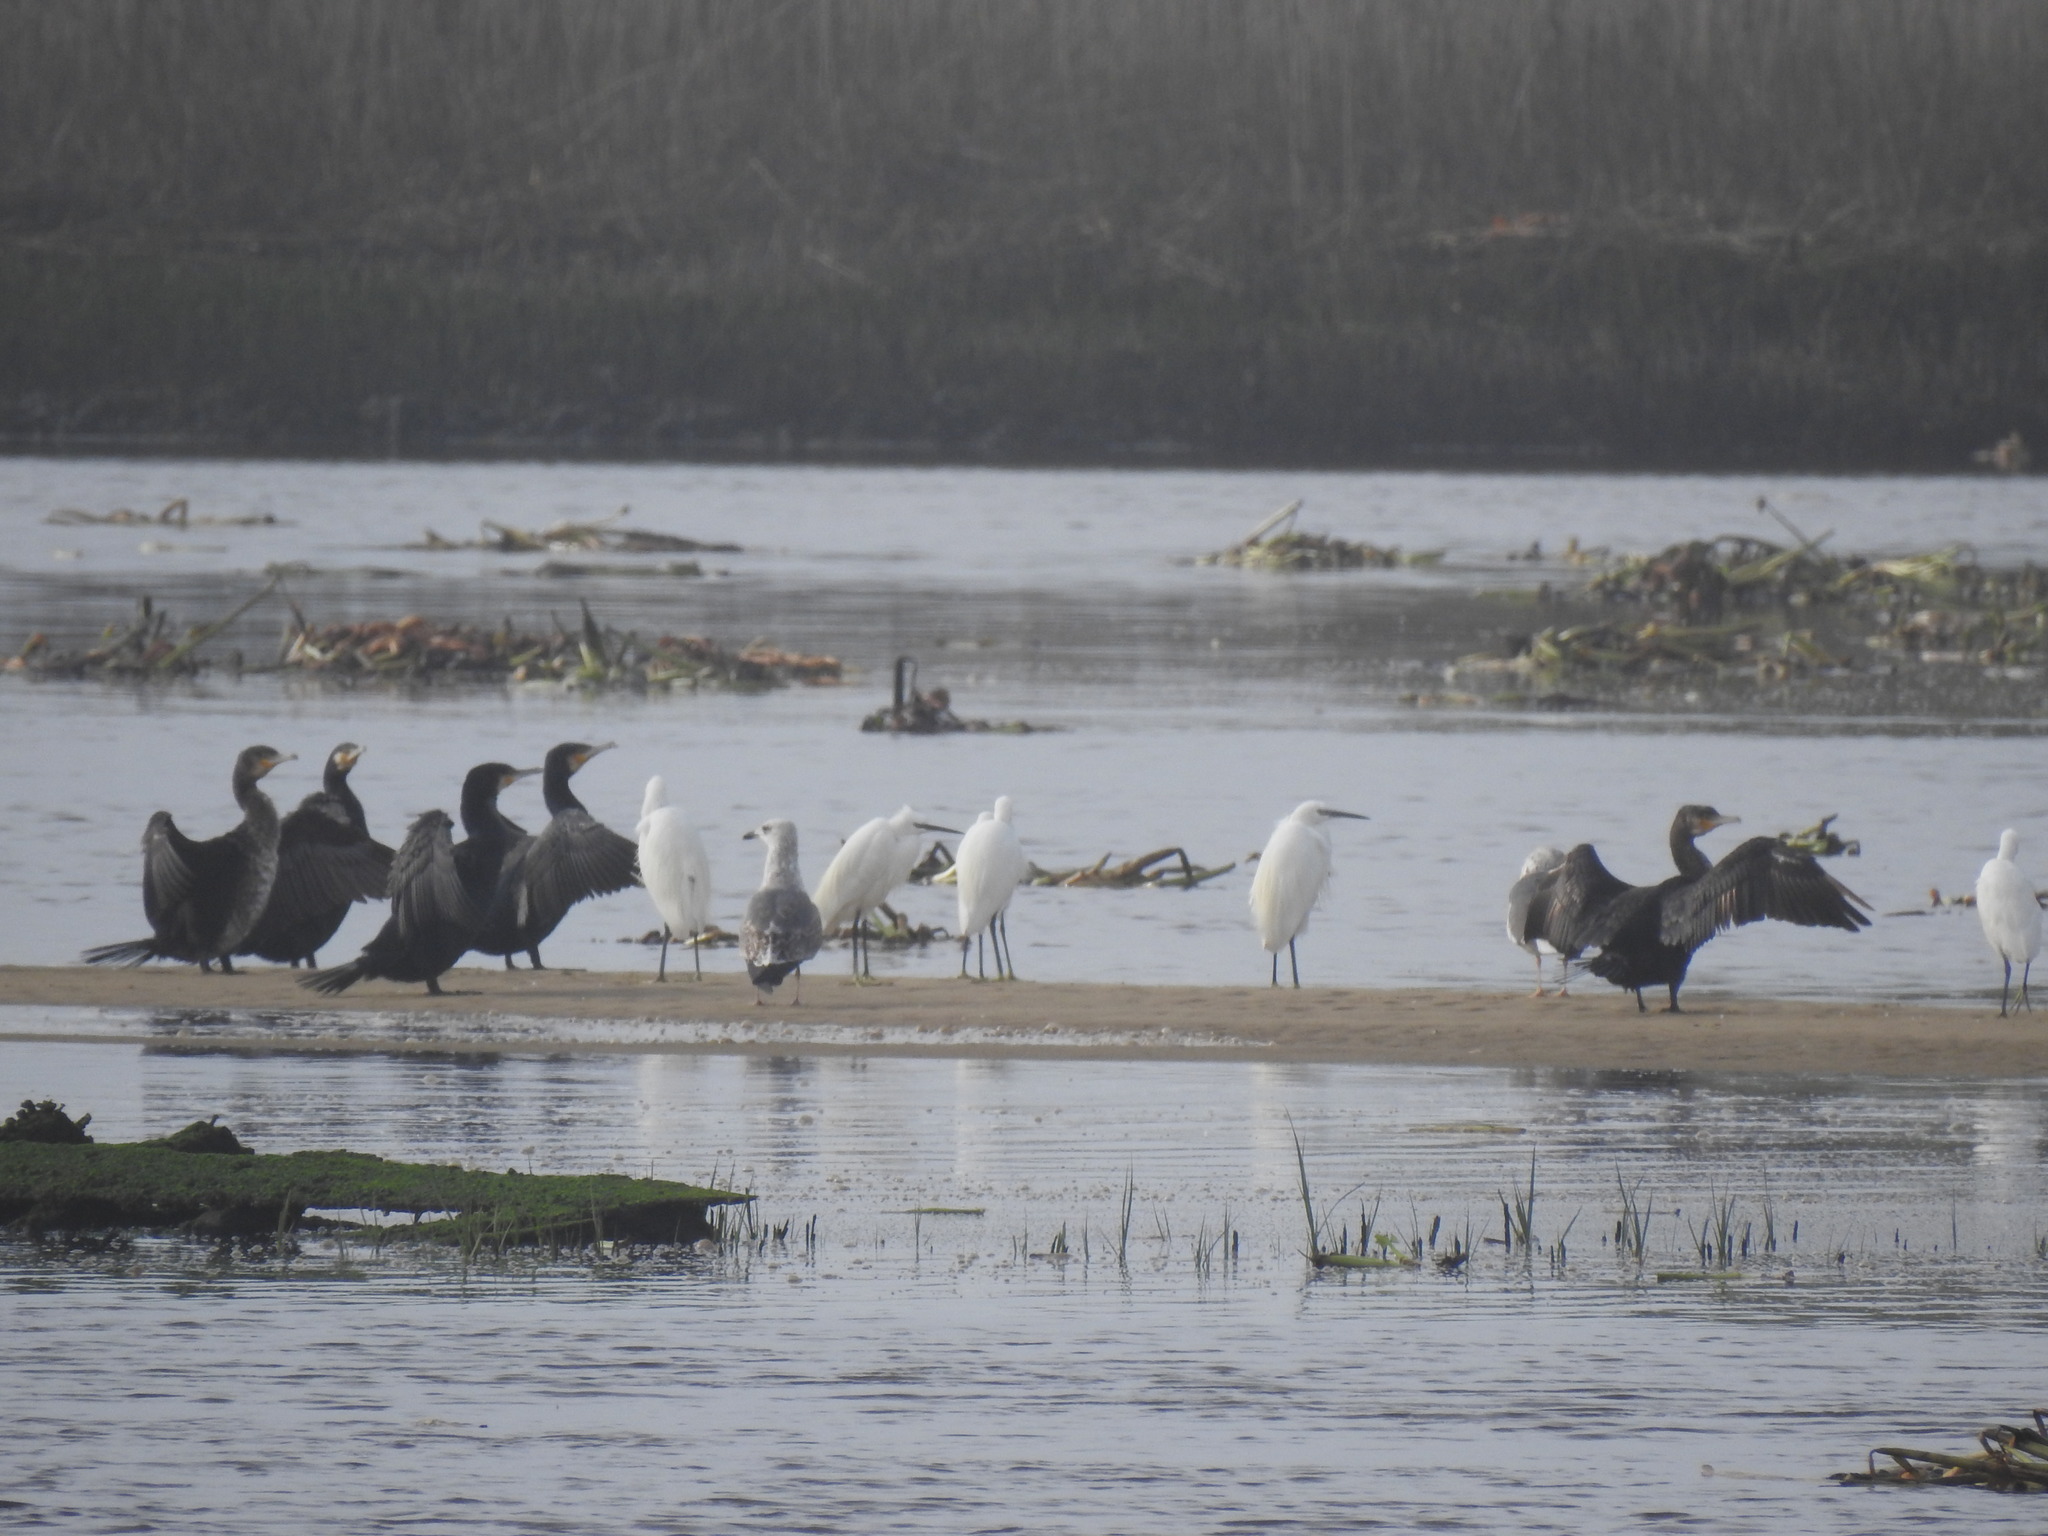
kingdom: Animalia
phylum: Chordata
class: Aves
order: Pelecaniformes
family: Ardeidae
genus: Egretta
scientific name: Egretta garzetta
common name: Little egret
